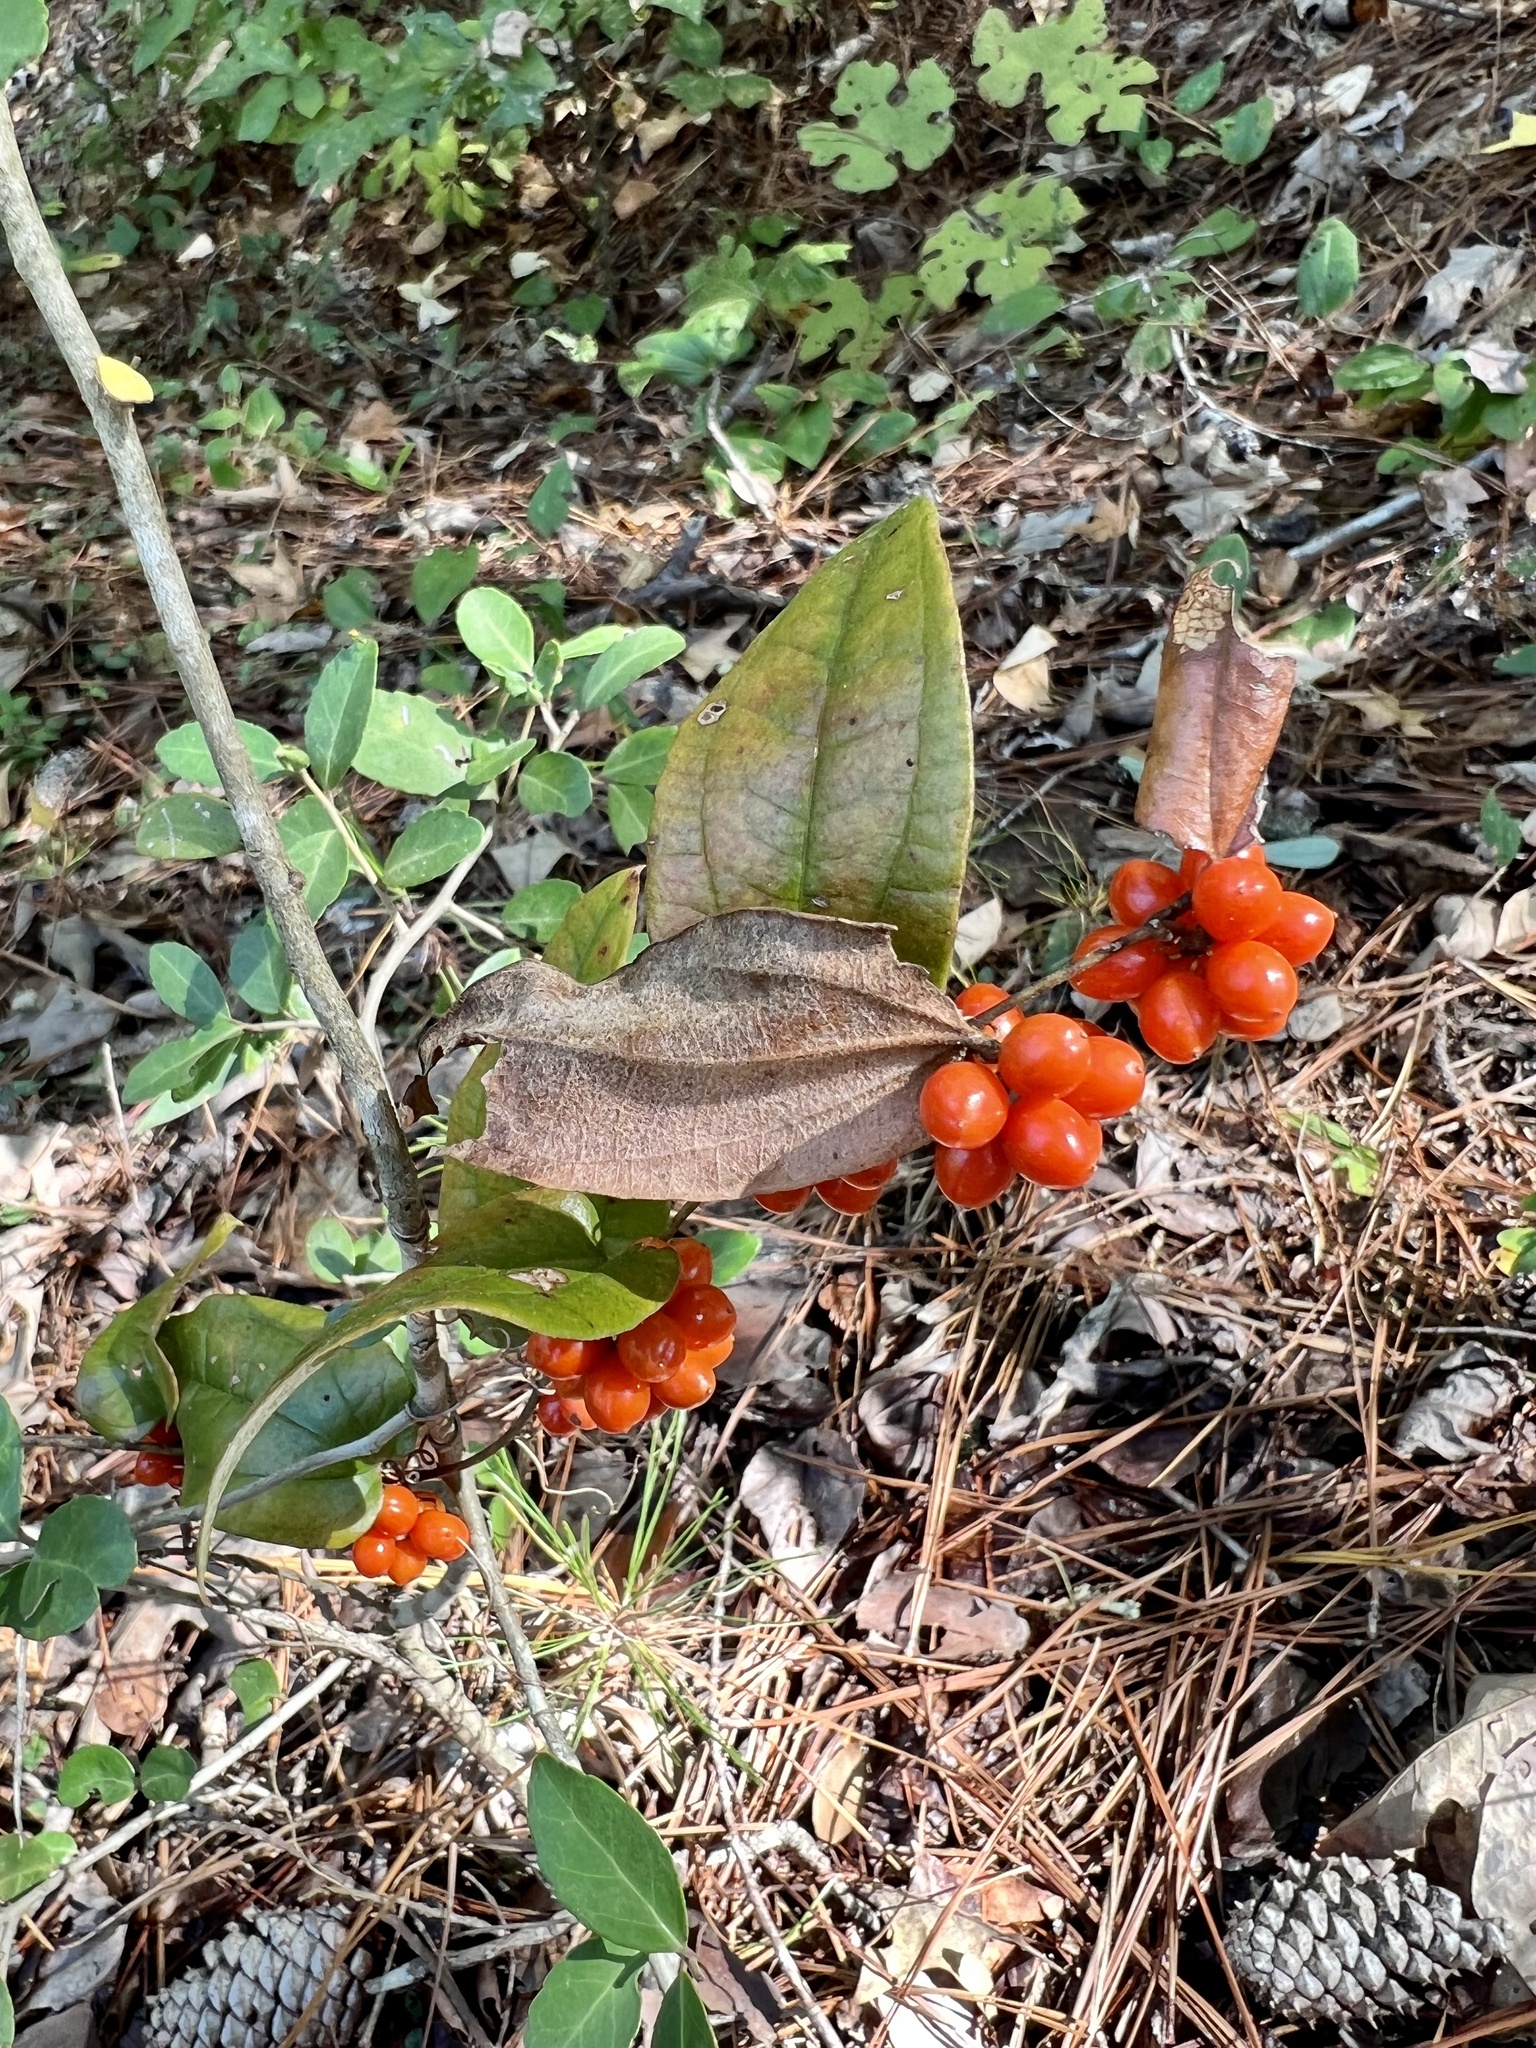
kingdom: Plantae
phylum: Tracheophyta
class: Liliopsida
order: Liliales
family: Smilacaceae
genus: Smilax
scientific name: Smilax pumila
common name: Sarsaparilla-vine
